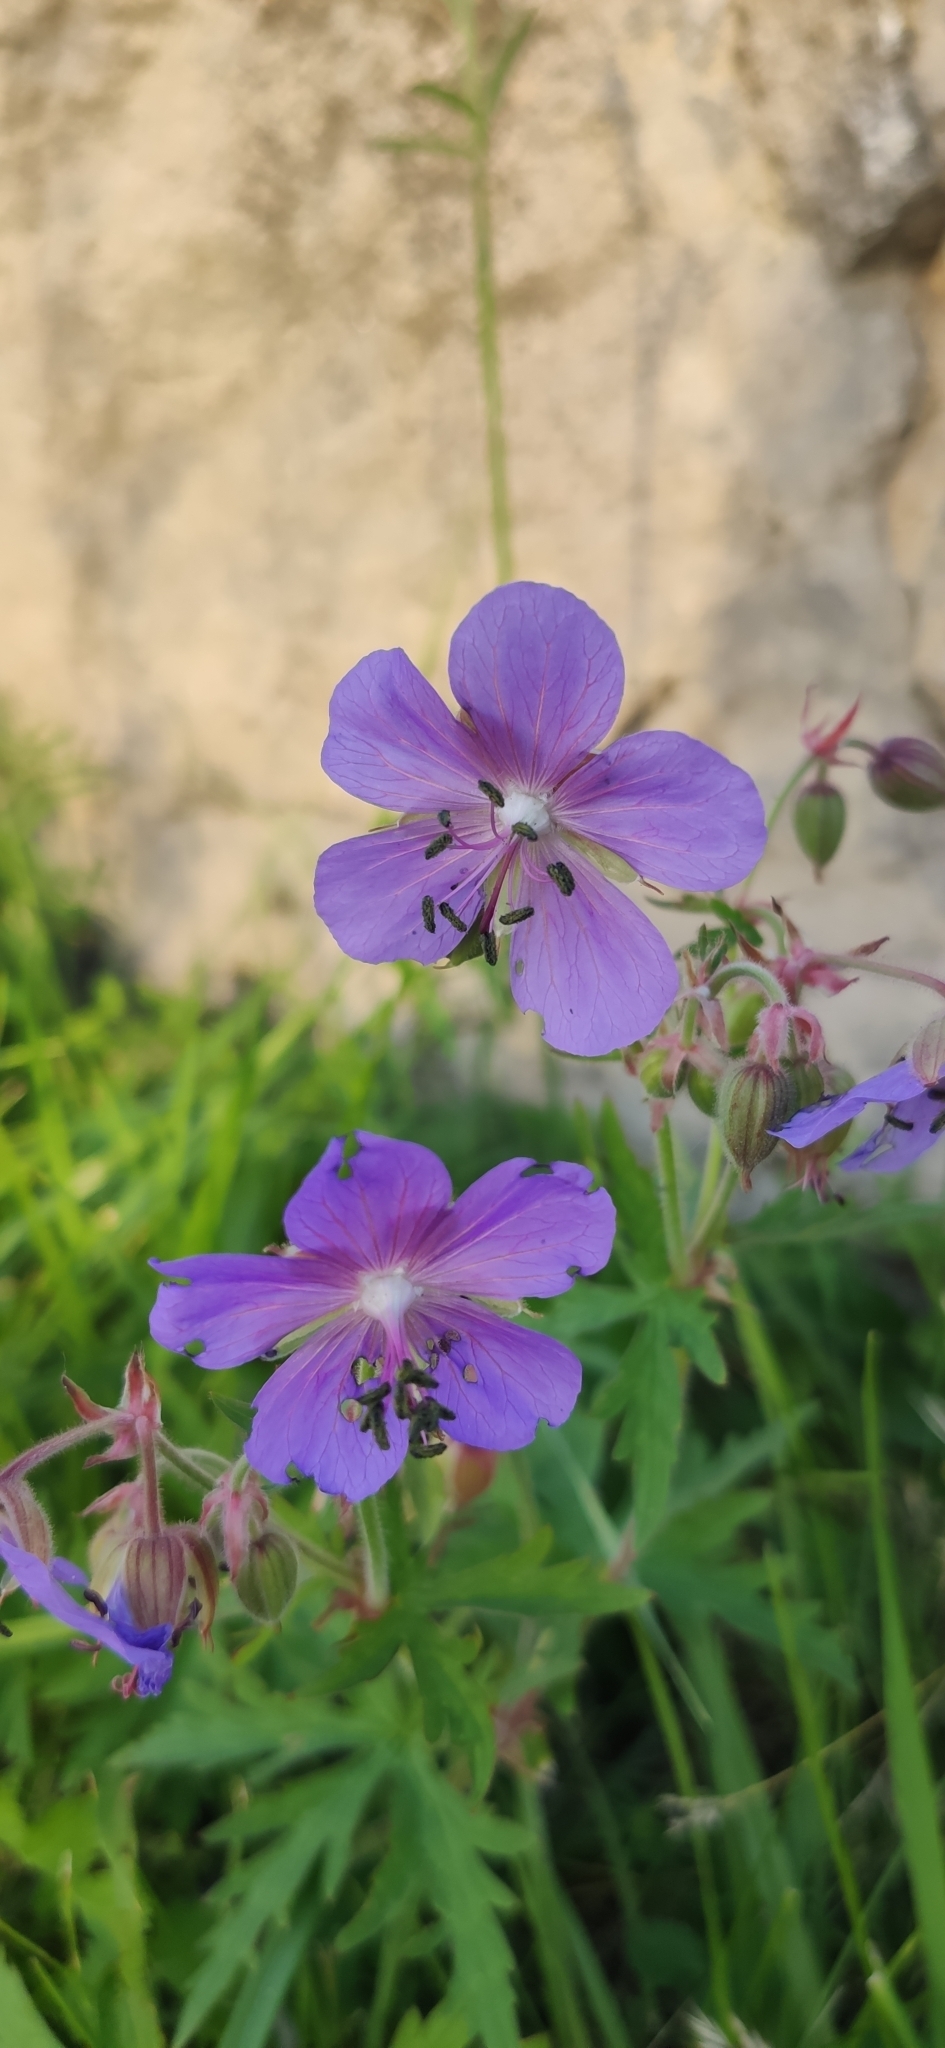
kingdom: Plantae
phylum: Tracheophyta
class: Magnoliopsida
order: Geraniales
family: Geraniaceae
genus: Geranium
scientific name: Geranium pratense
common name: Meadow crane's-bill
